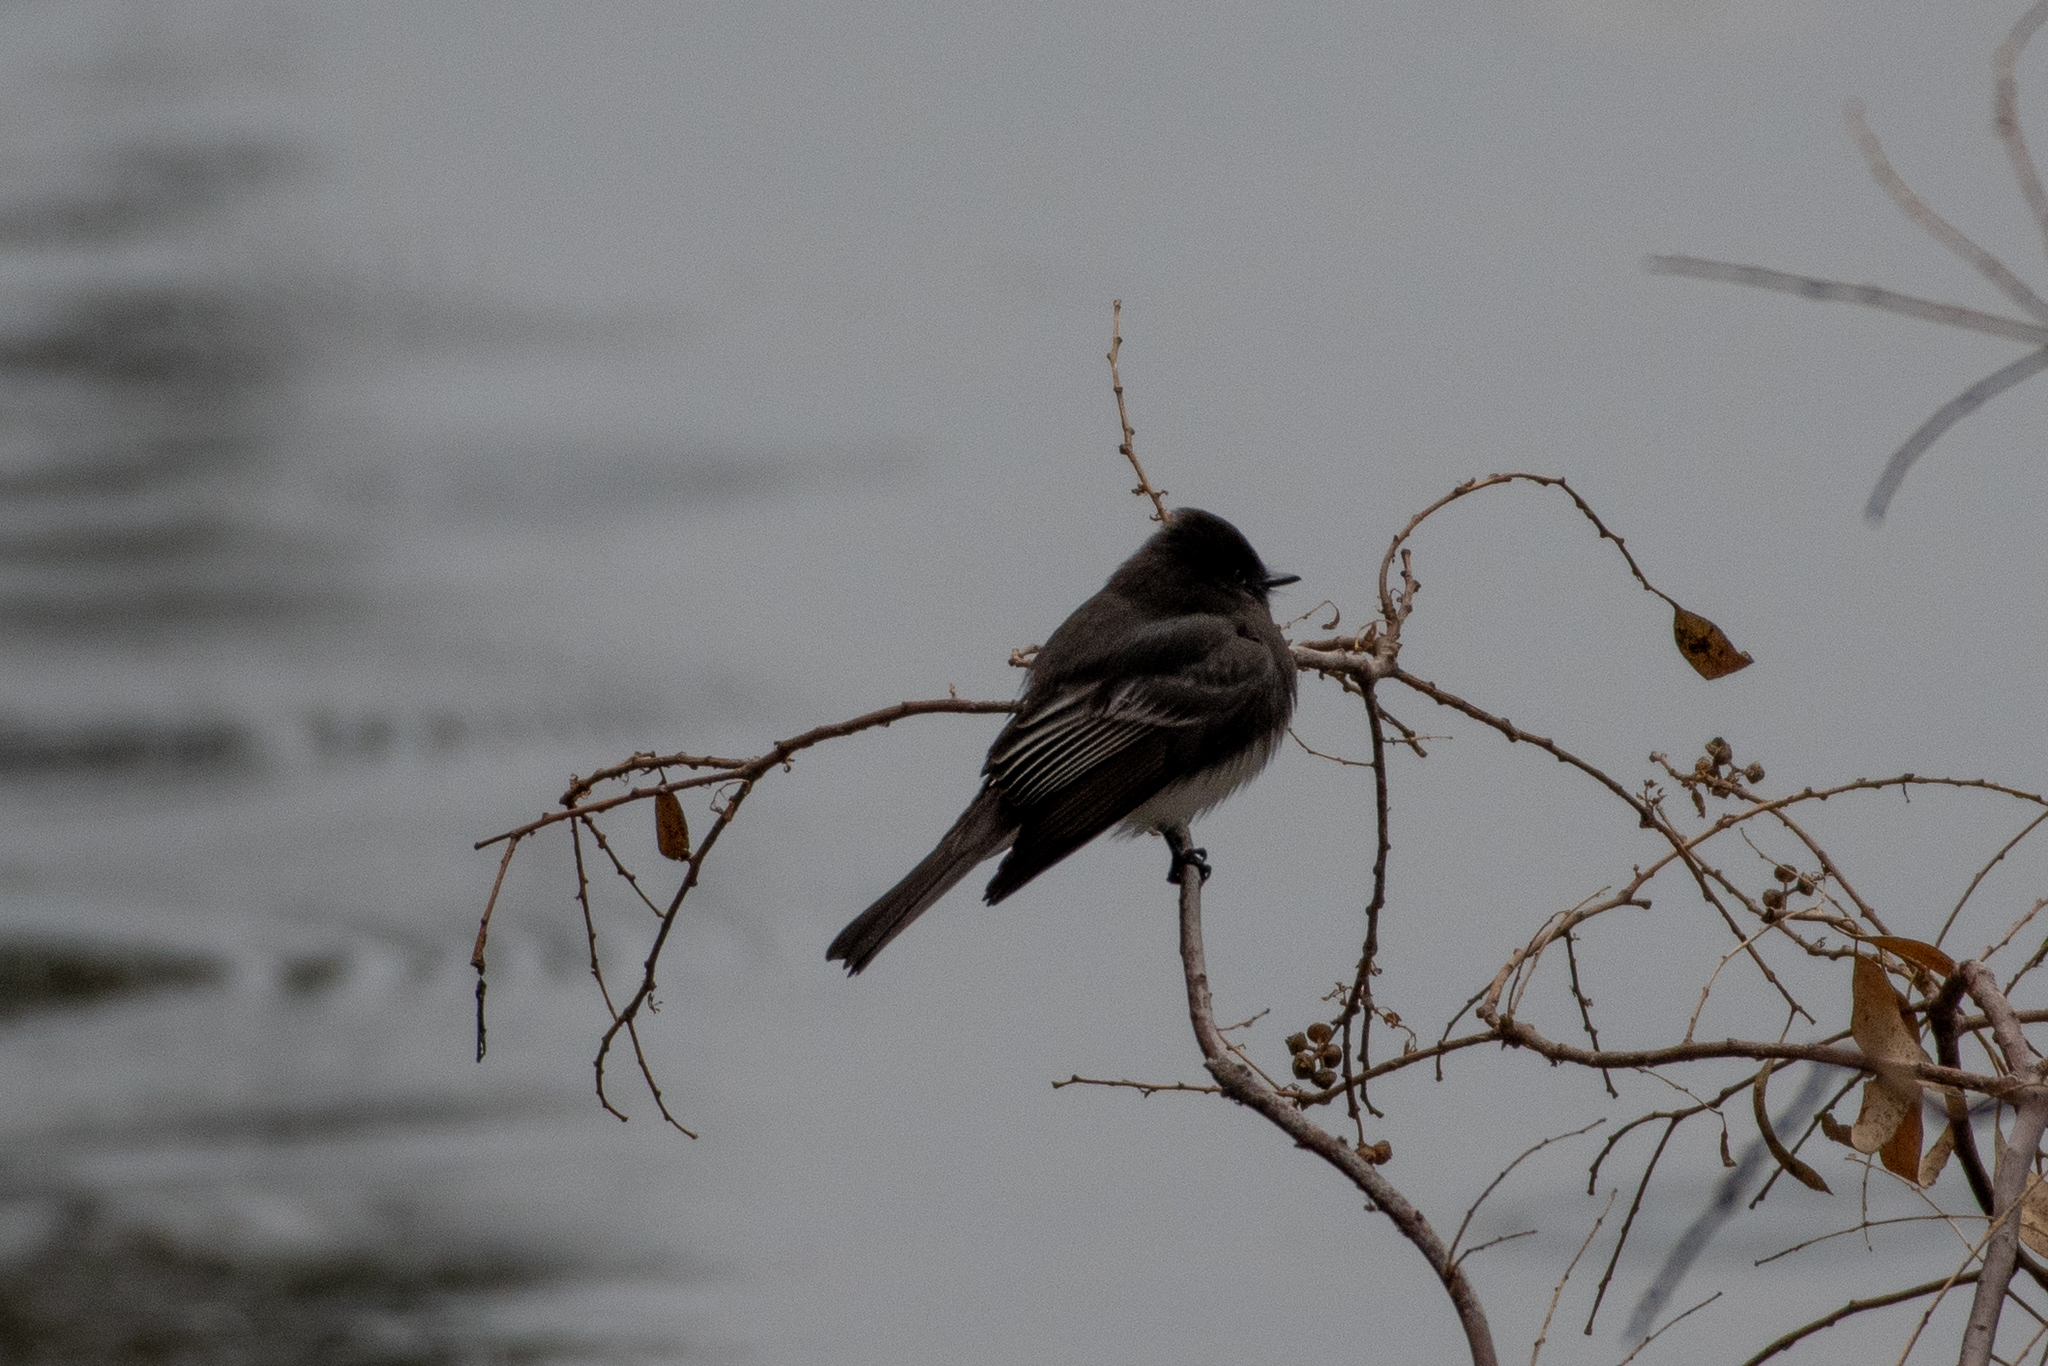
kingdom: Animalia
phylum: Chordata
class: Aves
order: Passeriformes
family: Tyrannidae
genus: Sayornis
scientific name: Sayornis nigricans
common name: Black phoebe
